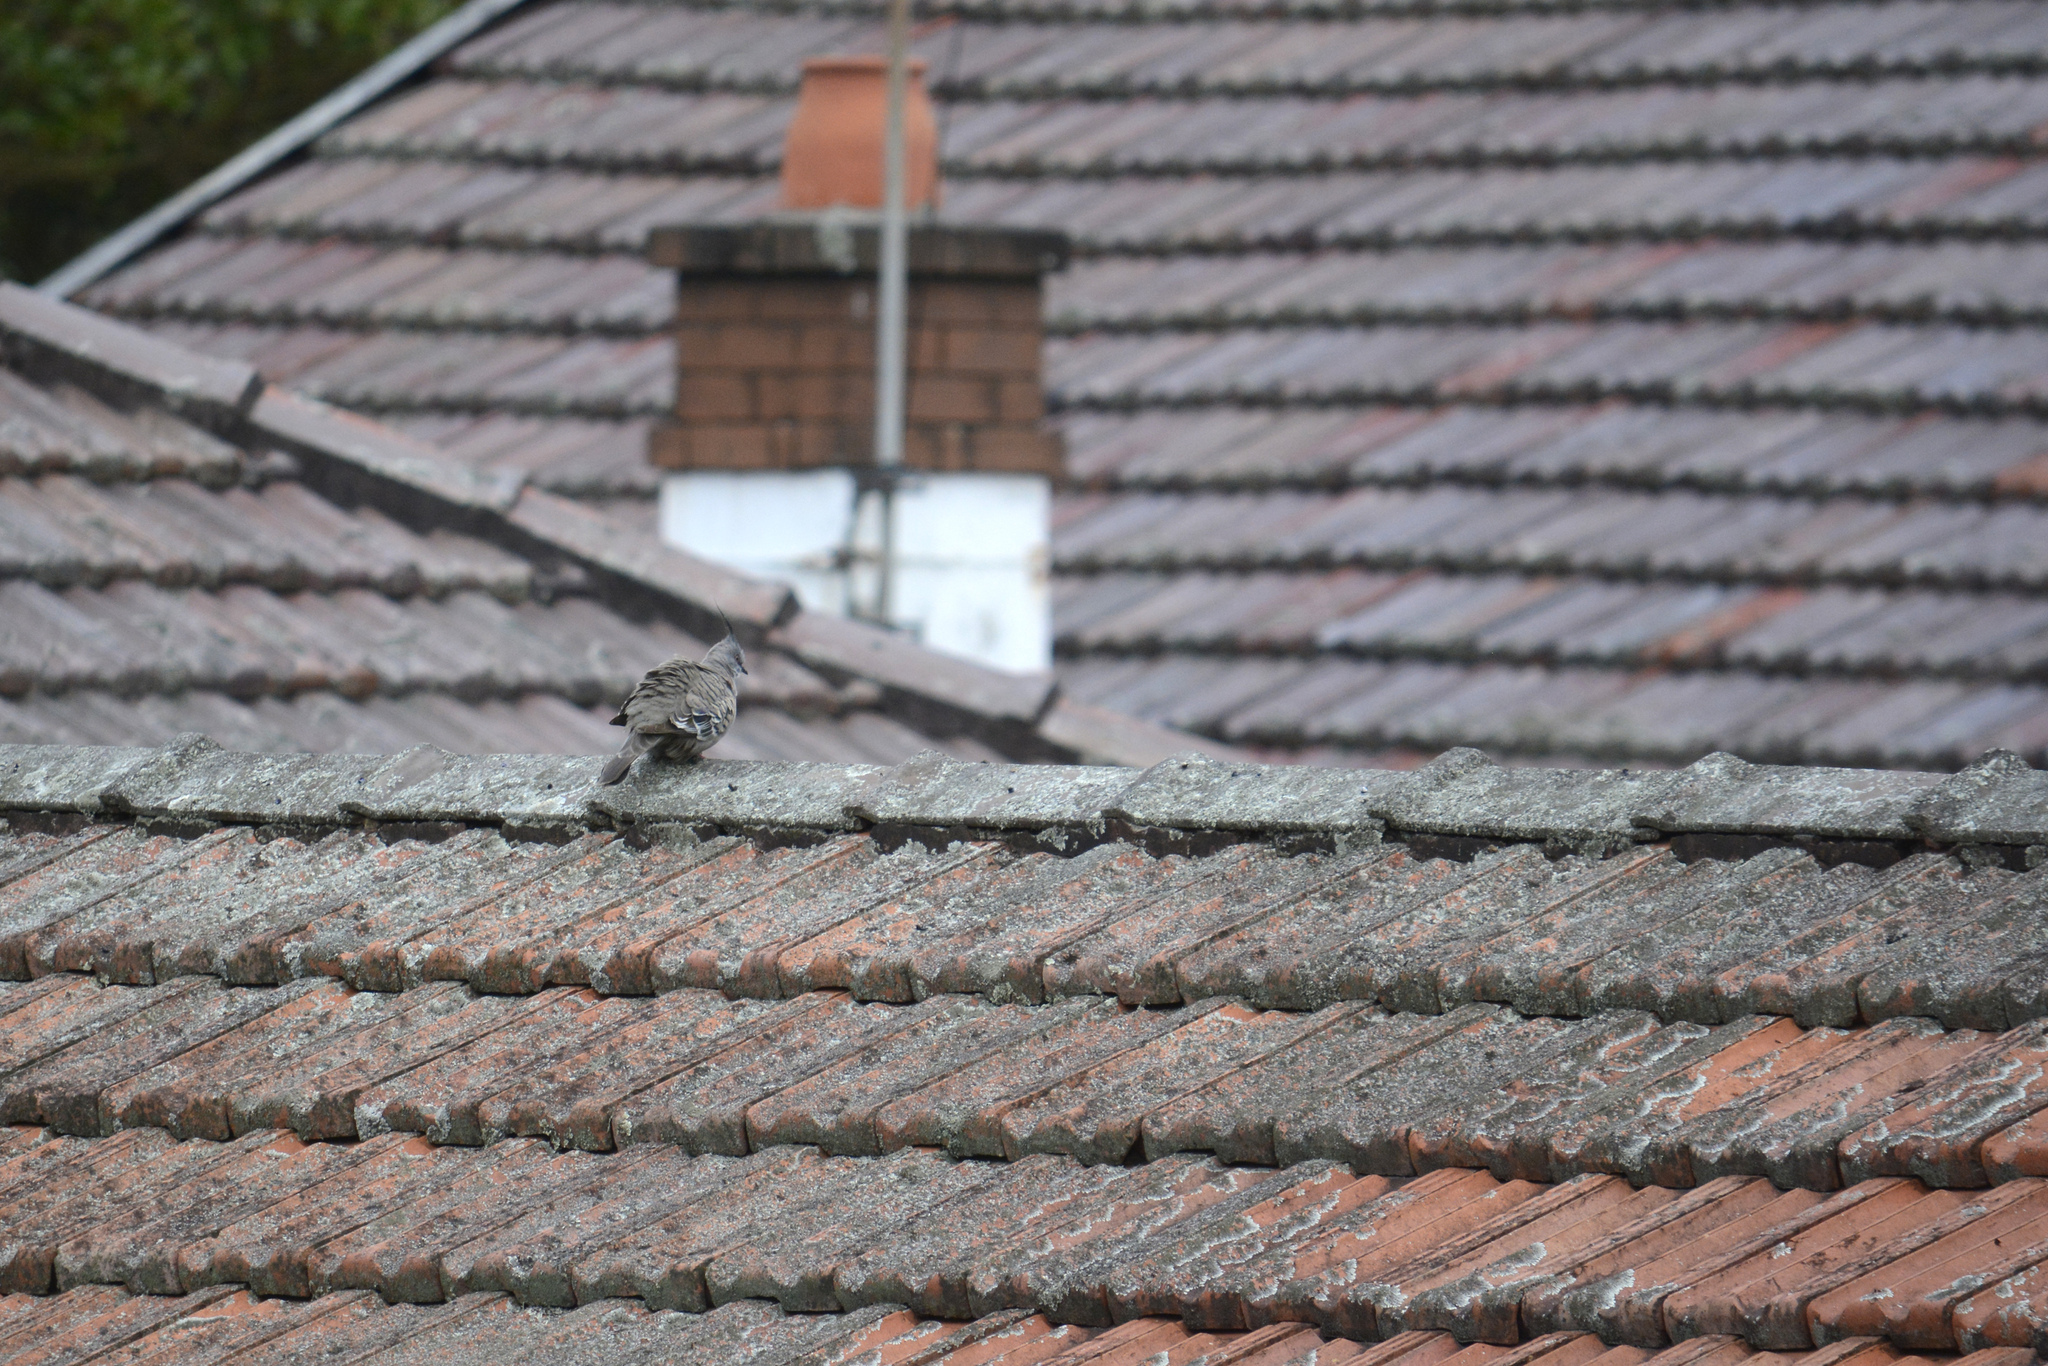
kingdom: Animalia
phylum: Chordata
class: Aves
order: Columbiformes
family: Columbidae
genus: Ocyphaps
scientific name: Ocyphaps lophotes
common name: Crested pigeon
